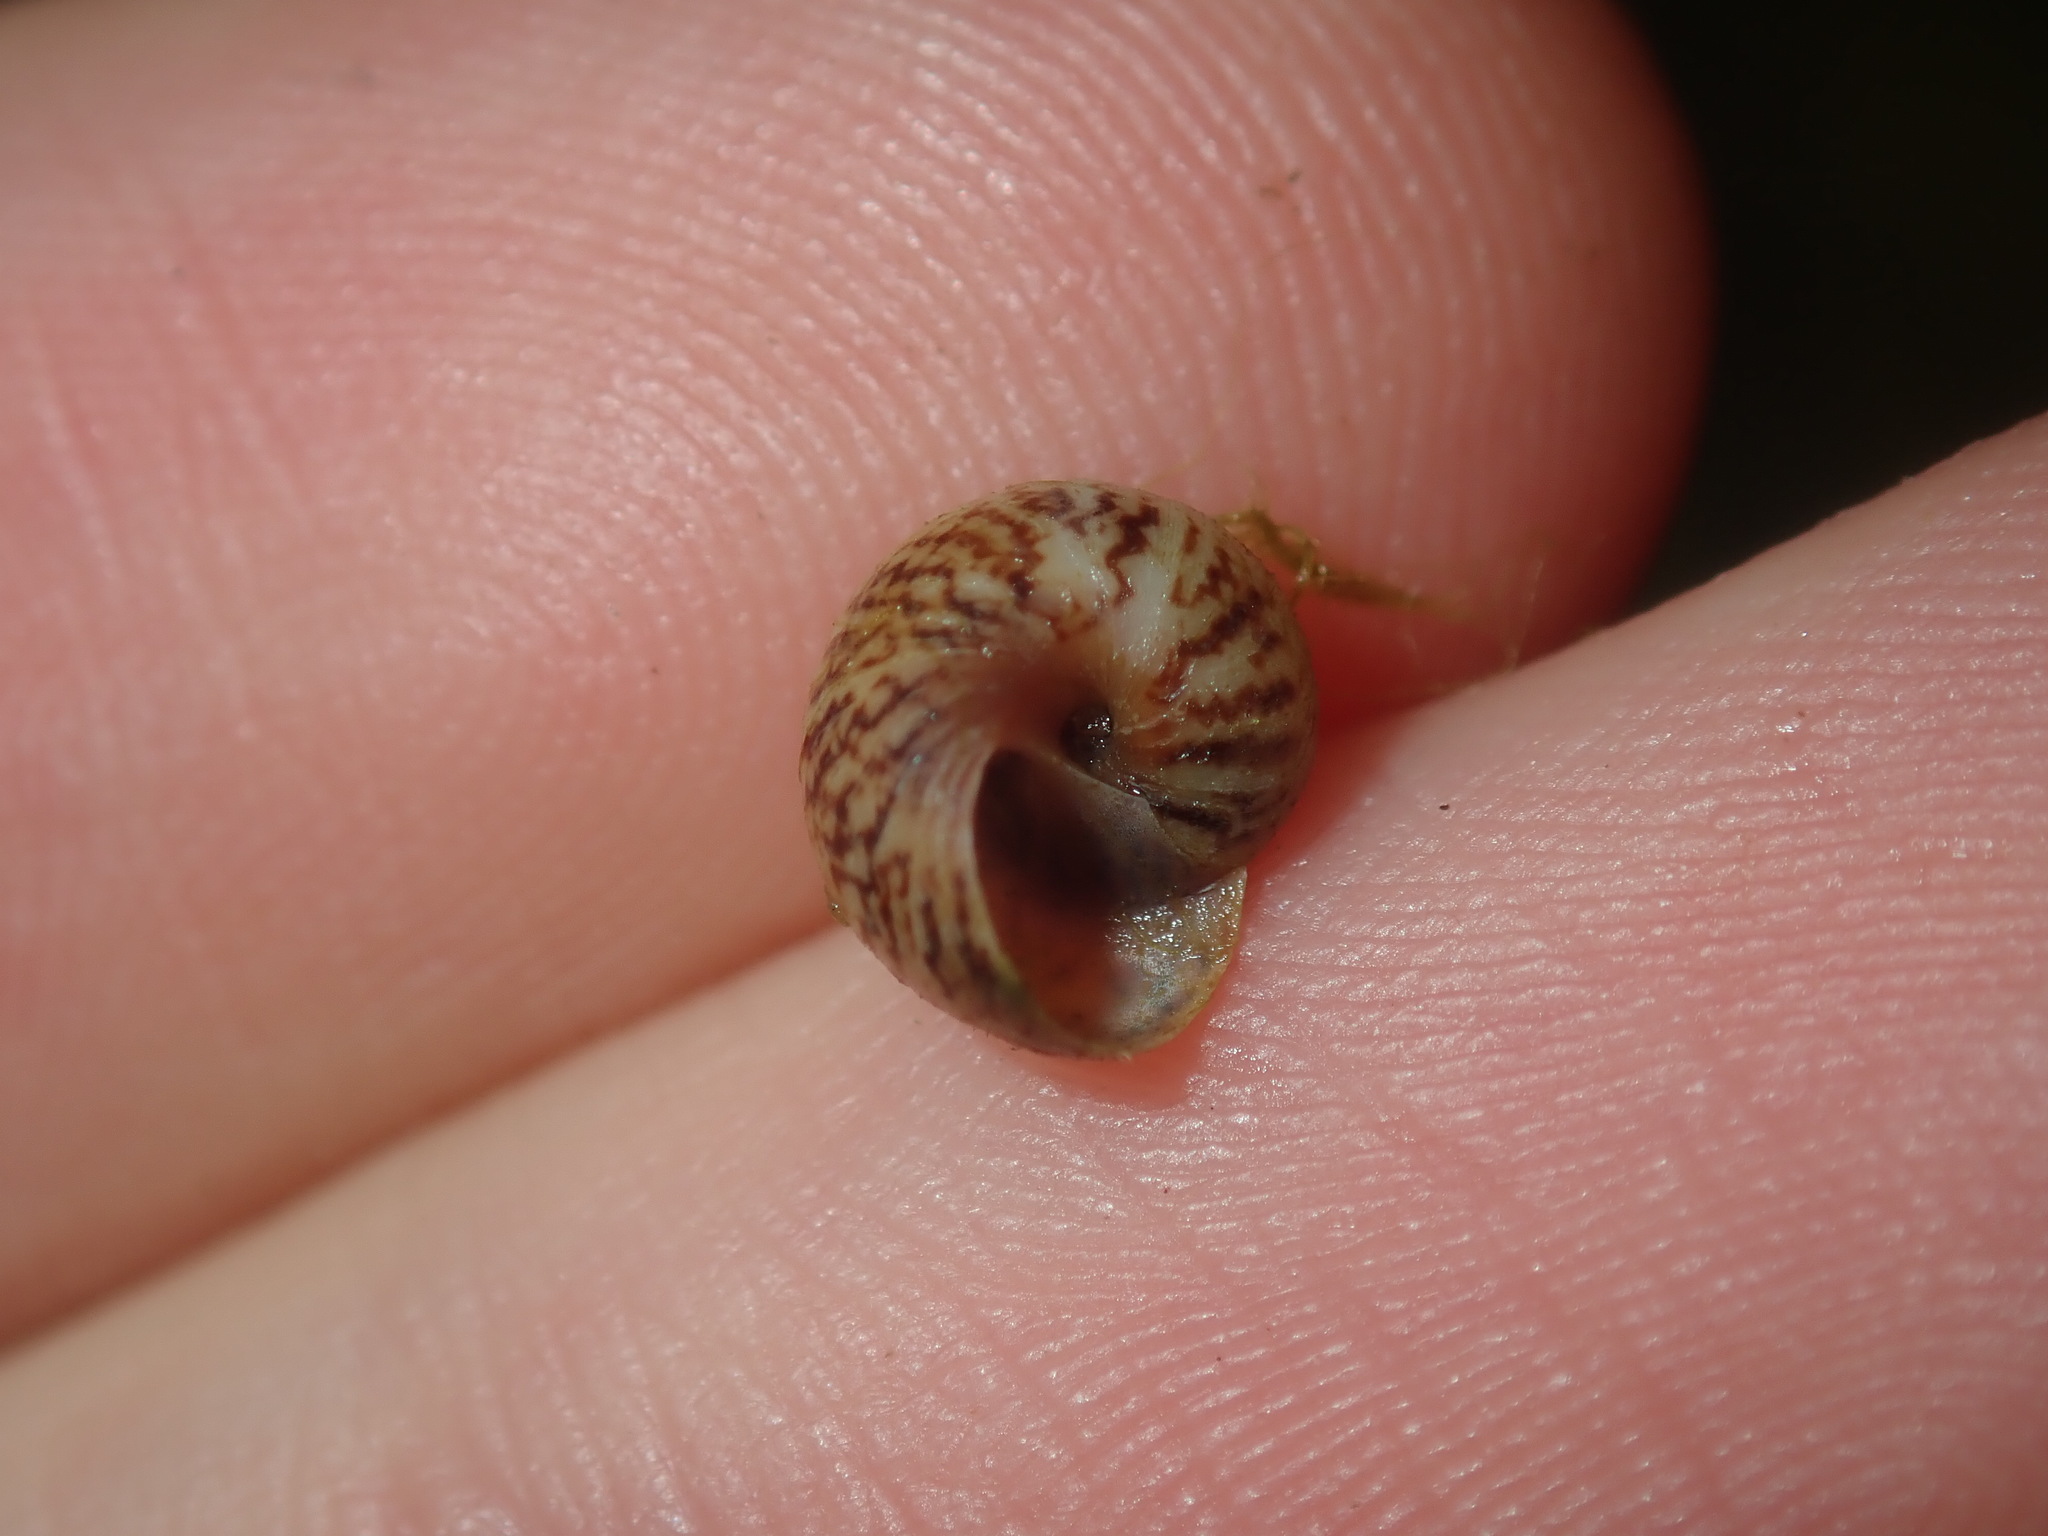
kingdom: Animalia
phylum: Mollusca
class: Gastropoda
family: Amphibolidae
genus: Phallomedusa
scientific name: Phallomedusa solida
